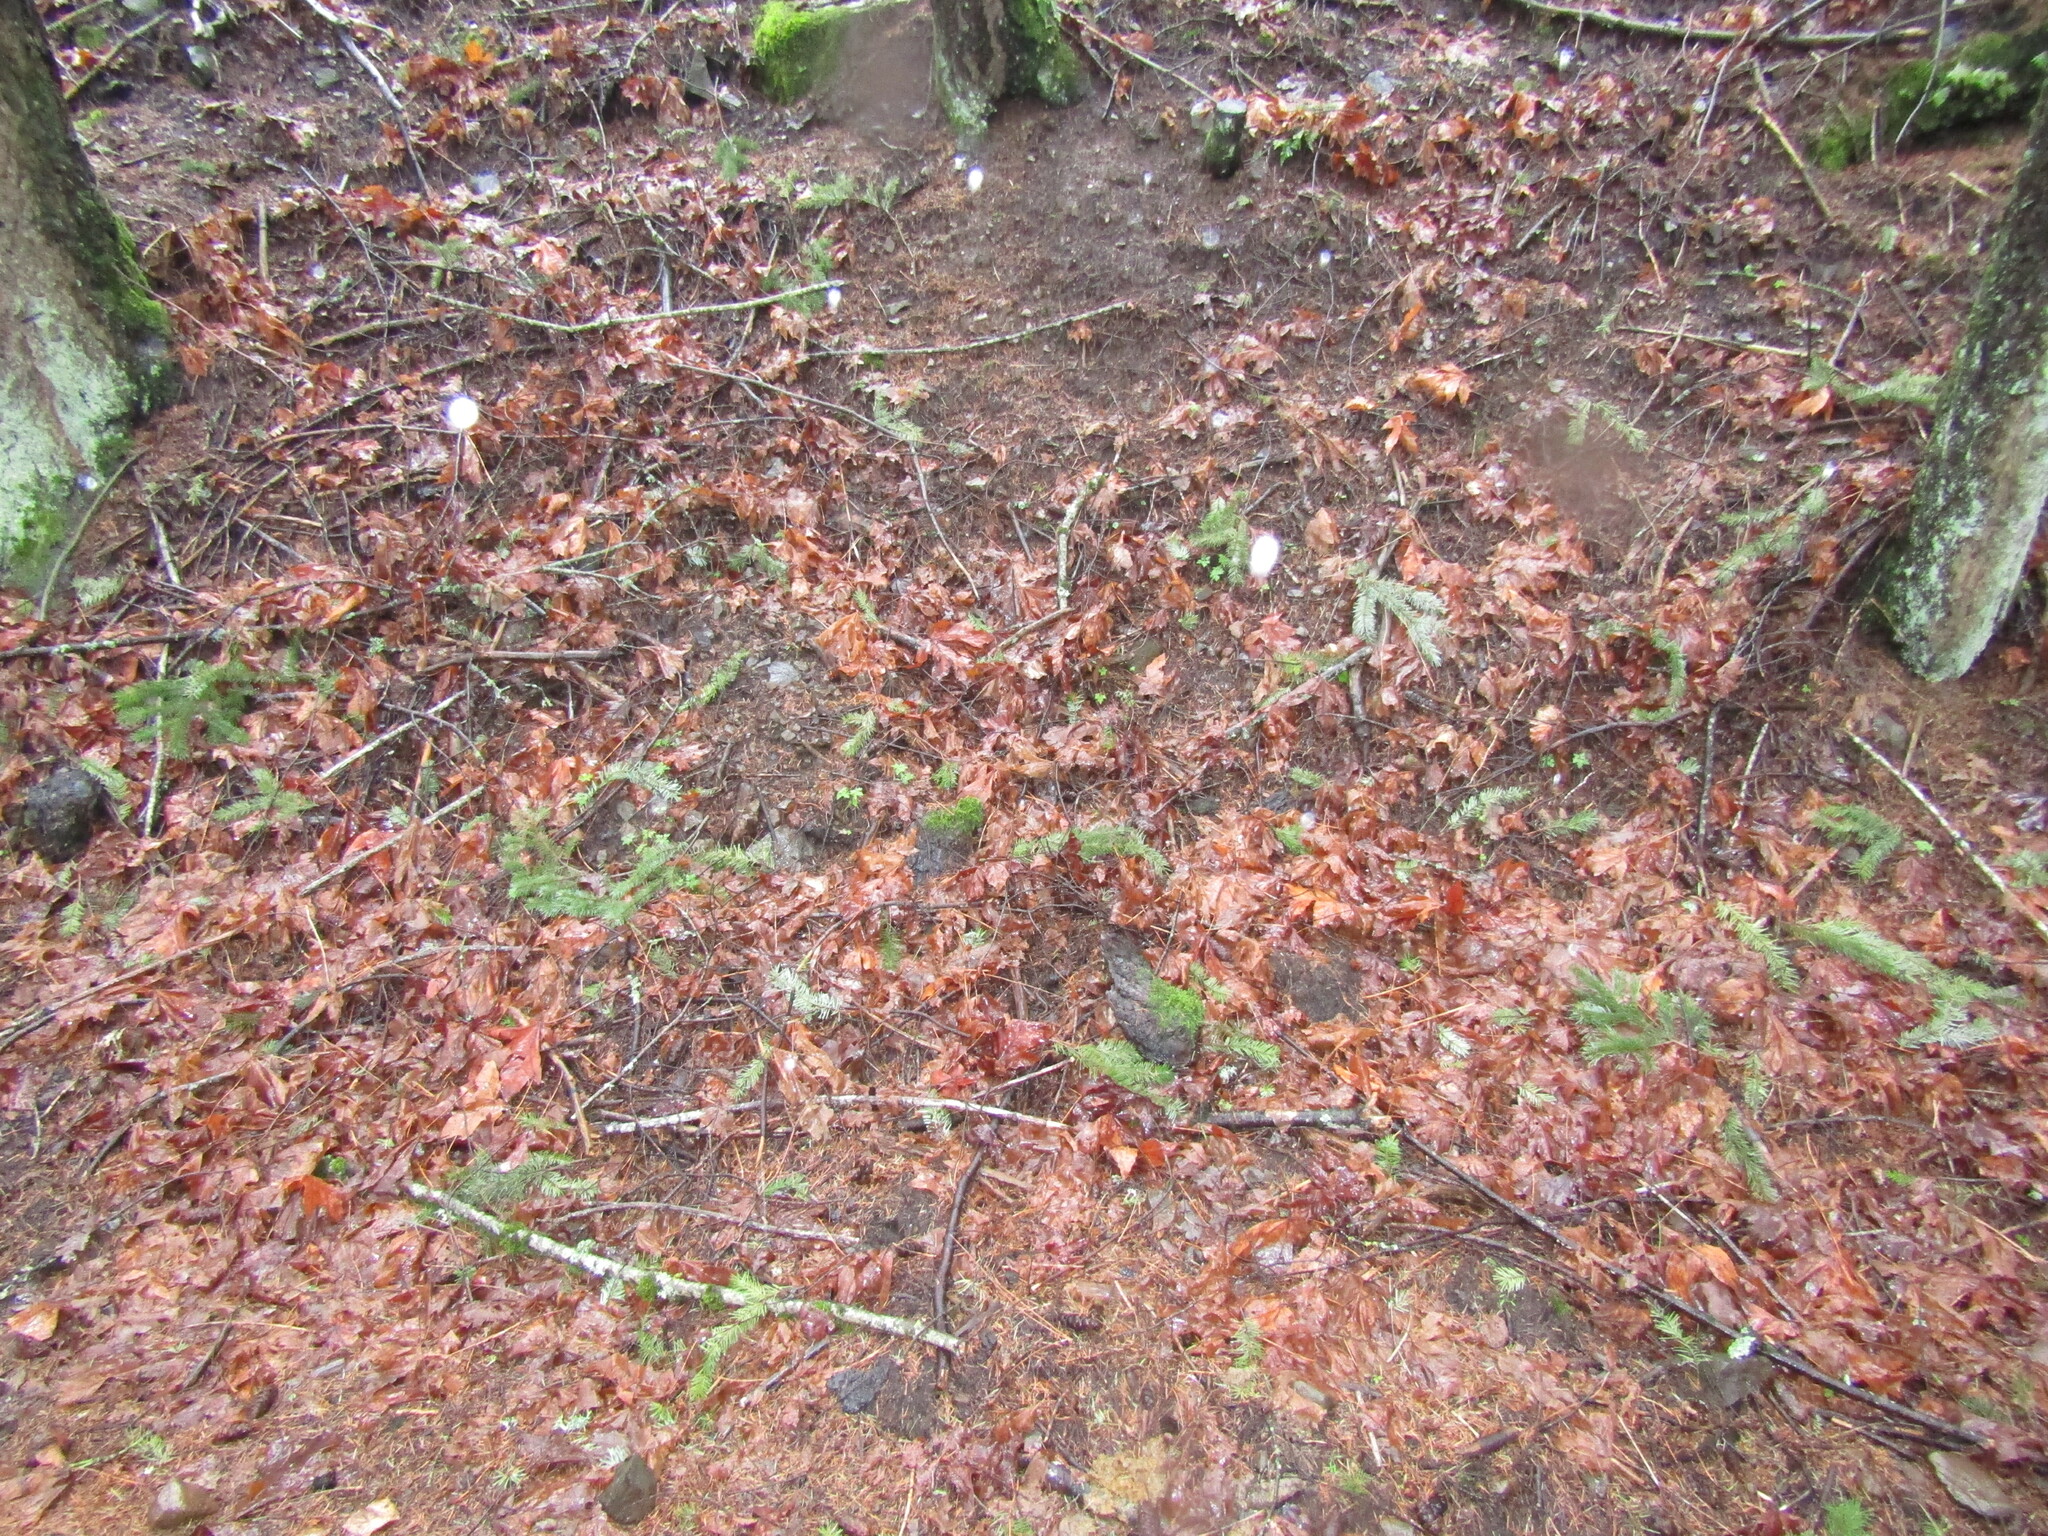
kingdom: Animalia
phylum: Chordata
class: Amphibia
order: Caudata
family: Rhyacotritonidae
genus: Rhyacotriton
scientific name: Rhyacotriton cascadae
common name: Cascade torrent salamander
